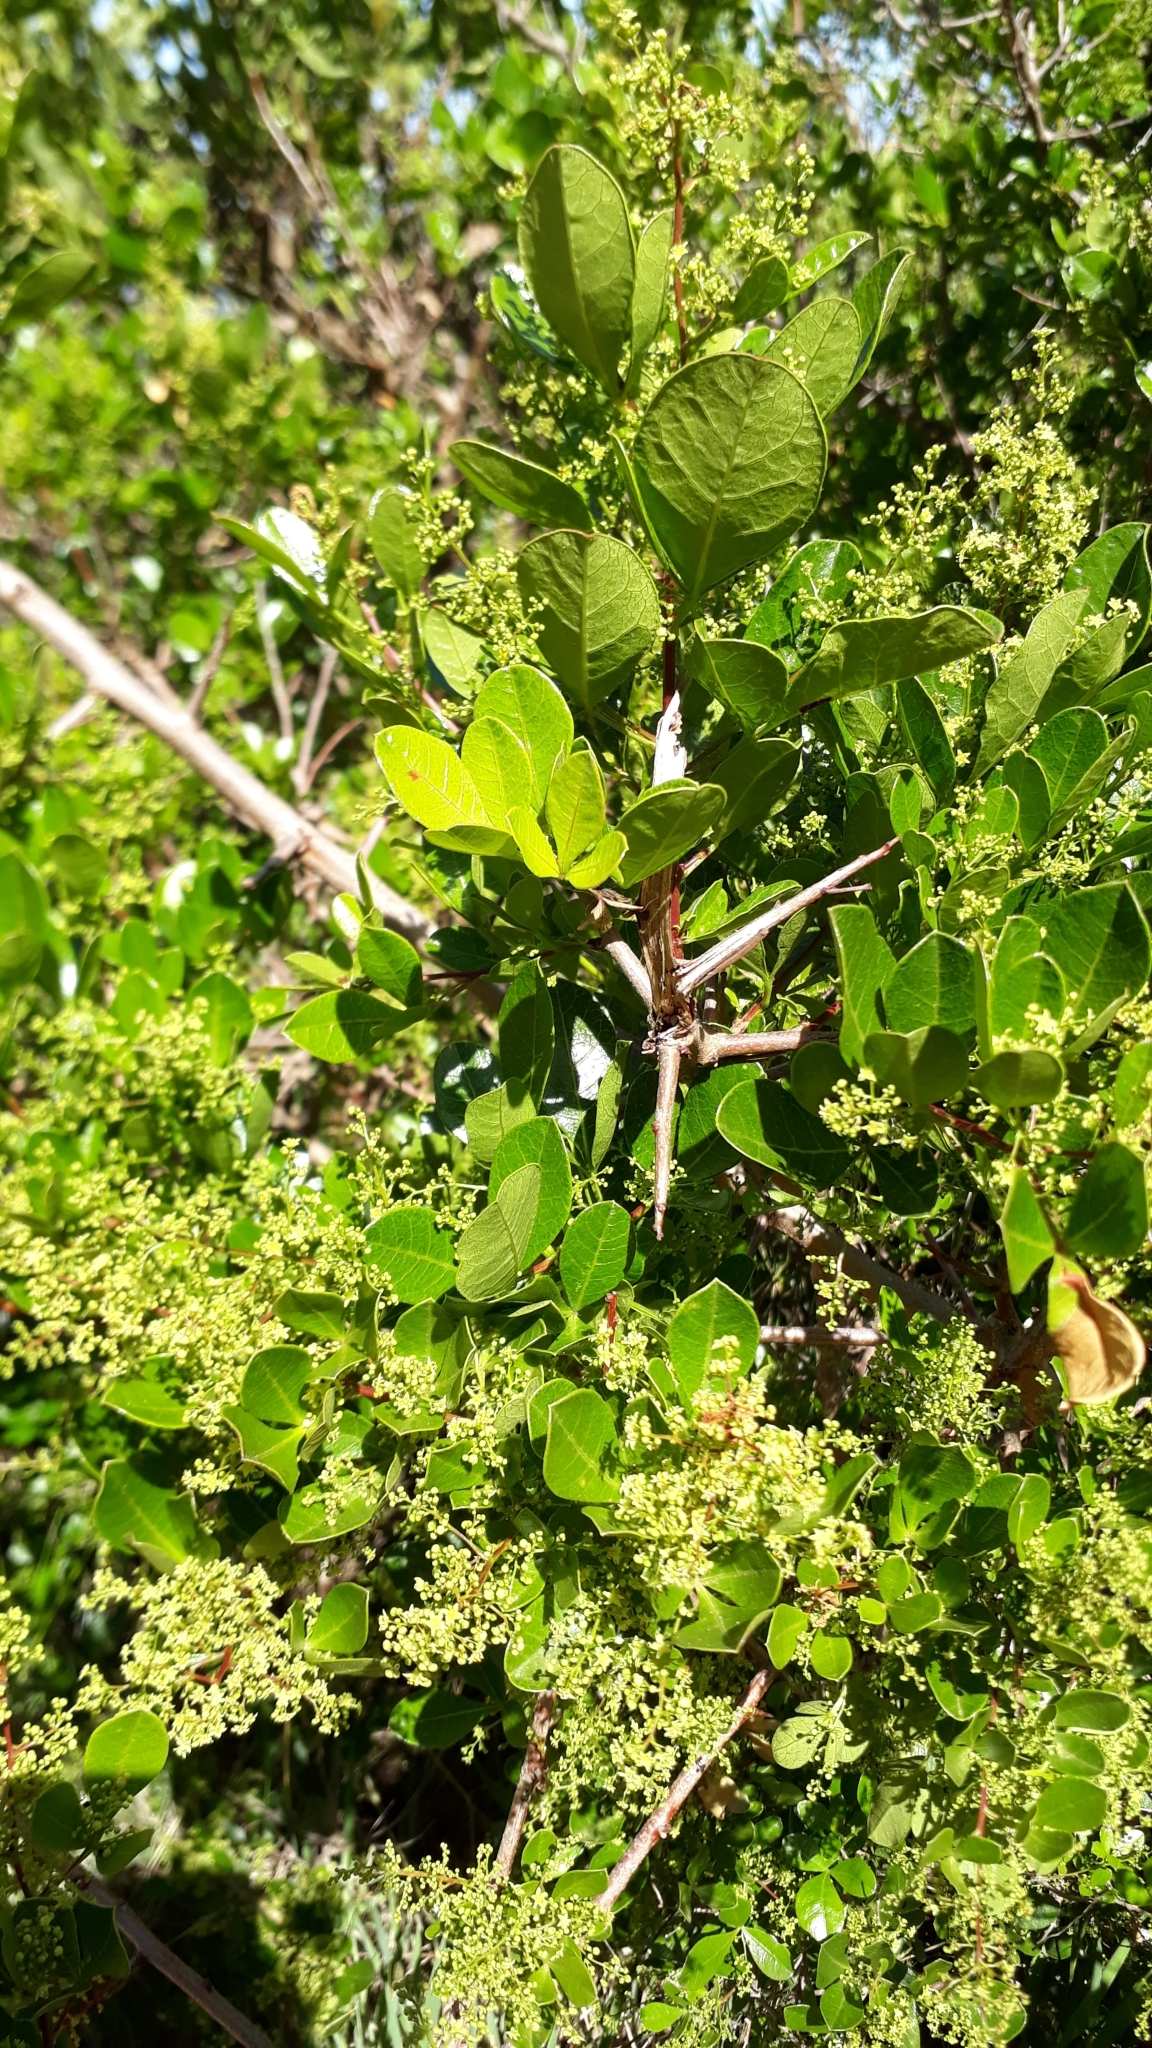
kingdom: Plantae
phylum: Tracheophyta
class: Magnoliopsida
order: Sapindales
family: Anacardiaceae
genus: Searsia
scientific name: Searsia laevigata
